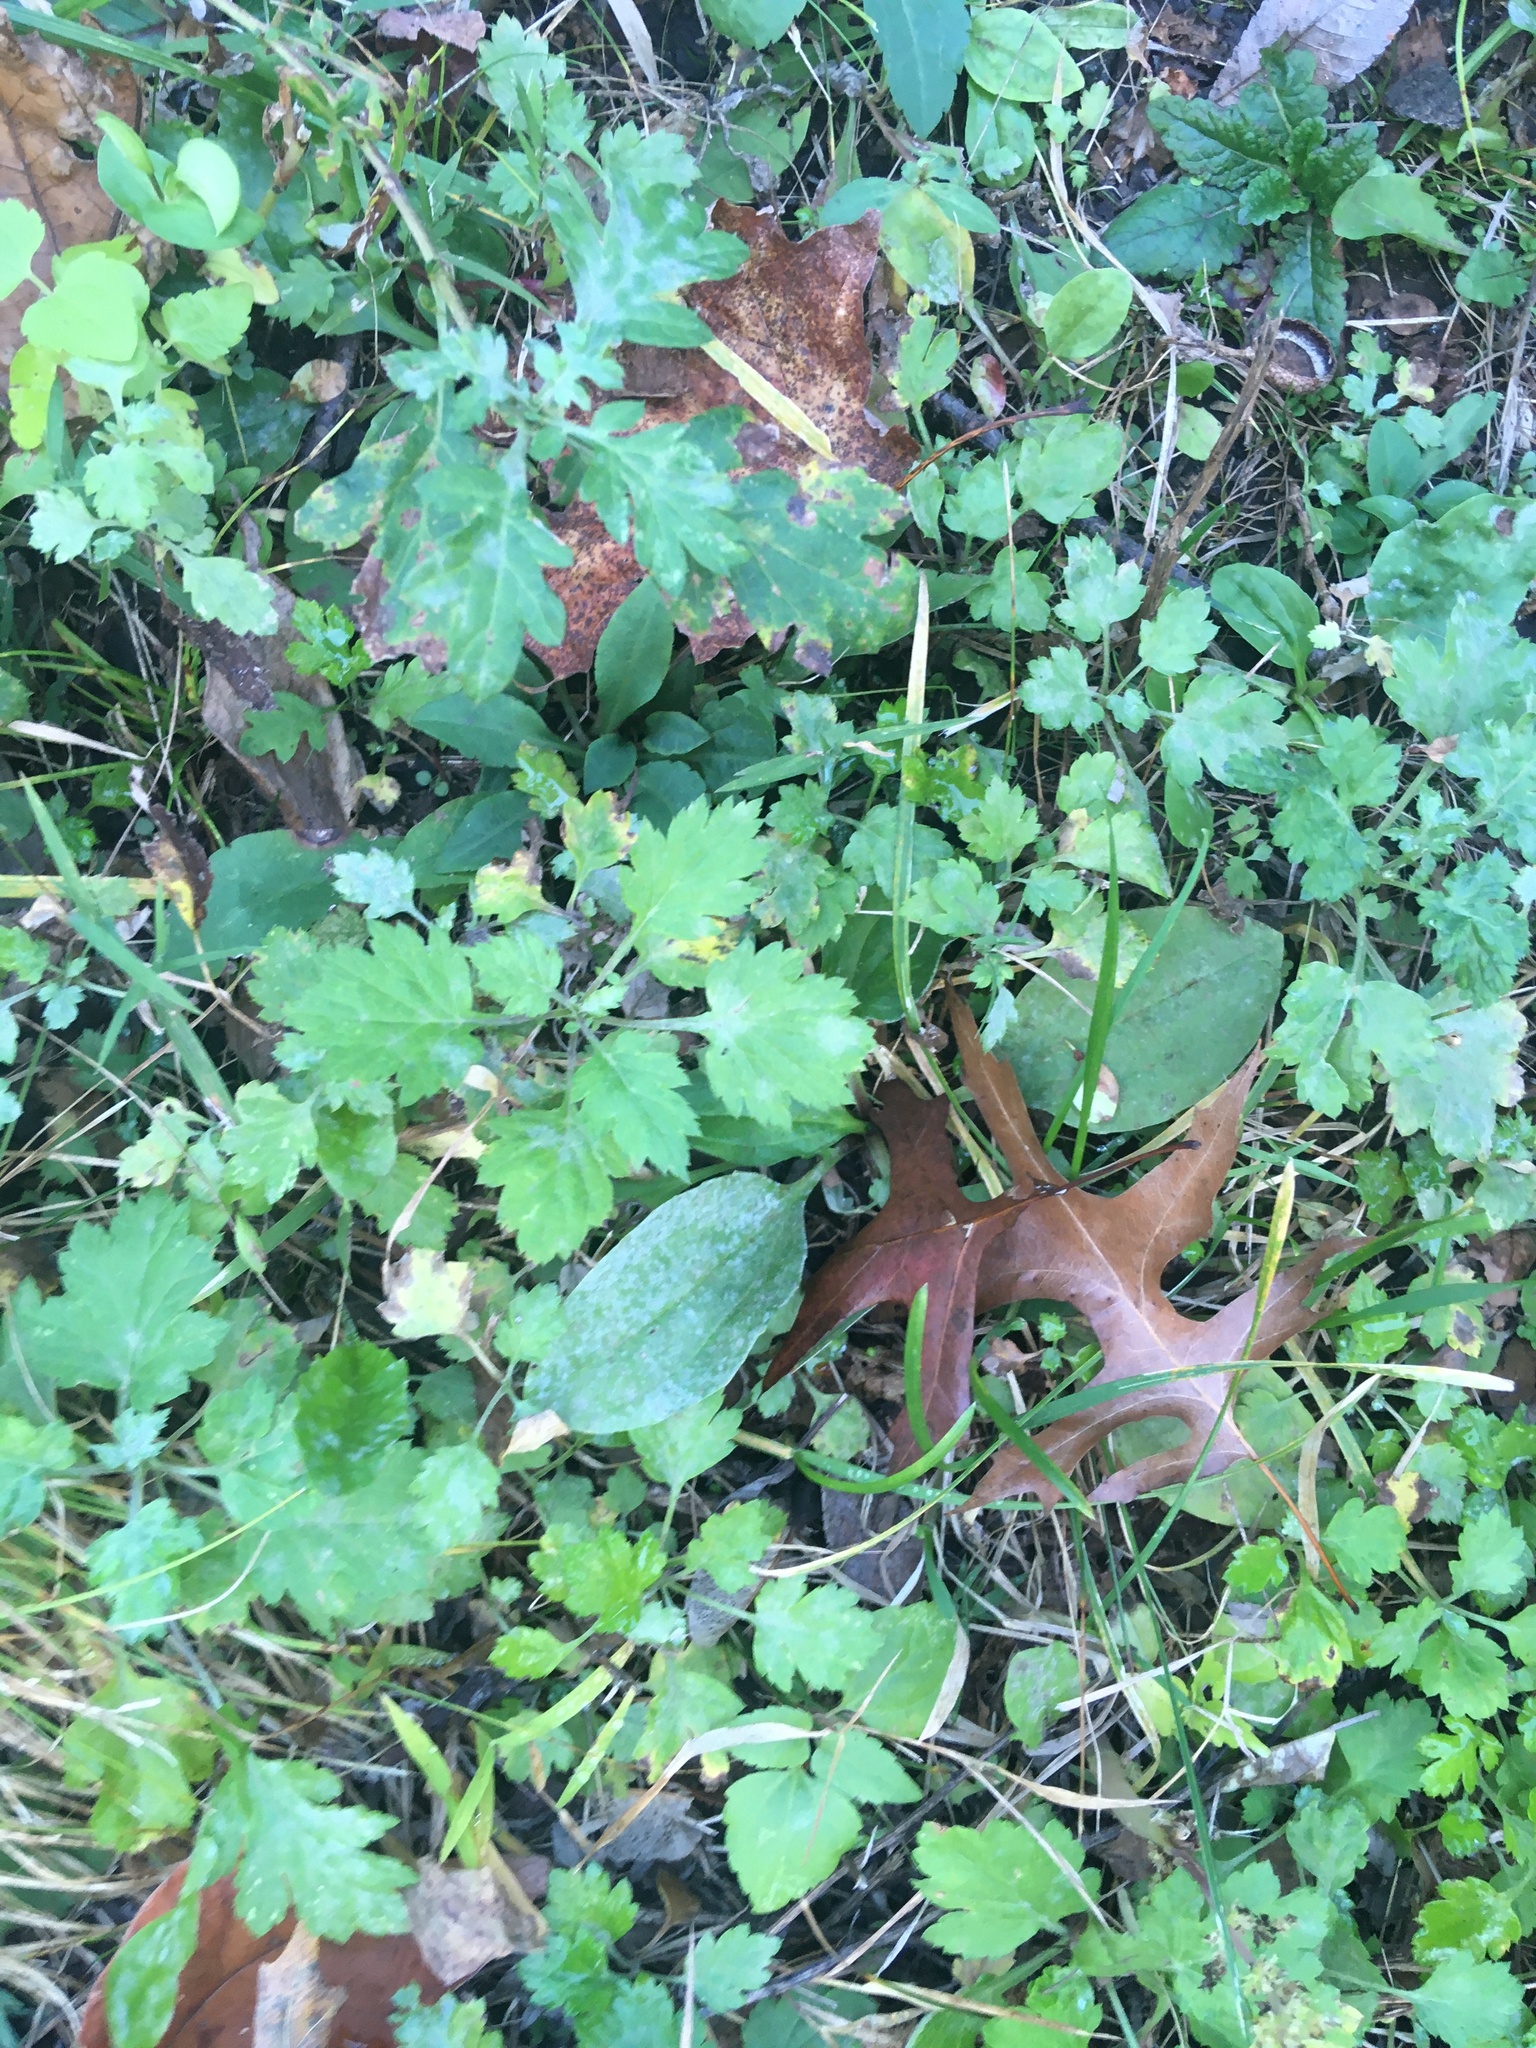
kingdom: Plantae
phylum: Tracheophyta
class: Magnoliopsida
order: Asterales
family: Asteraceae
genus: Artemisia
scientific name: Artemisia vulgaris
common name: Mugwort
